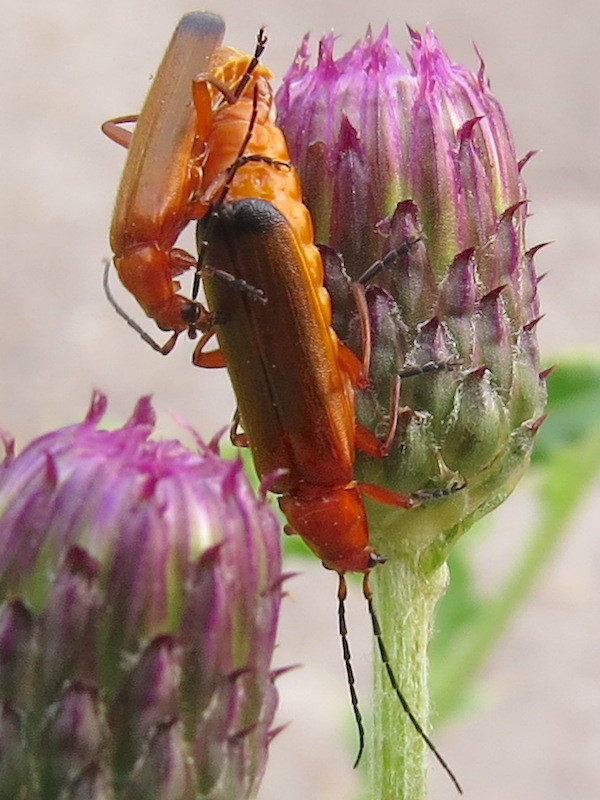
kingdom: Animalia
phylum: Arthropoda
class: Insecta
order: Coleoptera
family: Cantharidae
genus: Rhagonycha
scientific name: Rhagonycha fulva
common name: Common red soldier beetle
